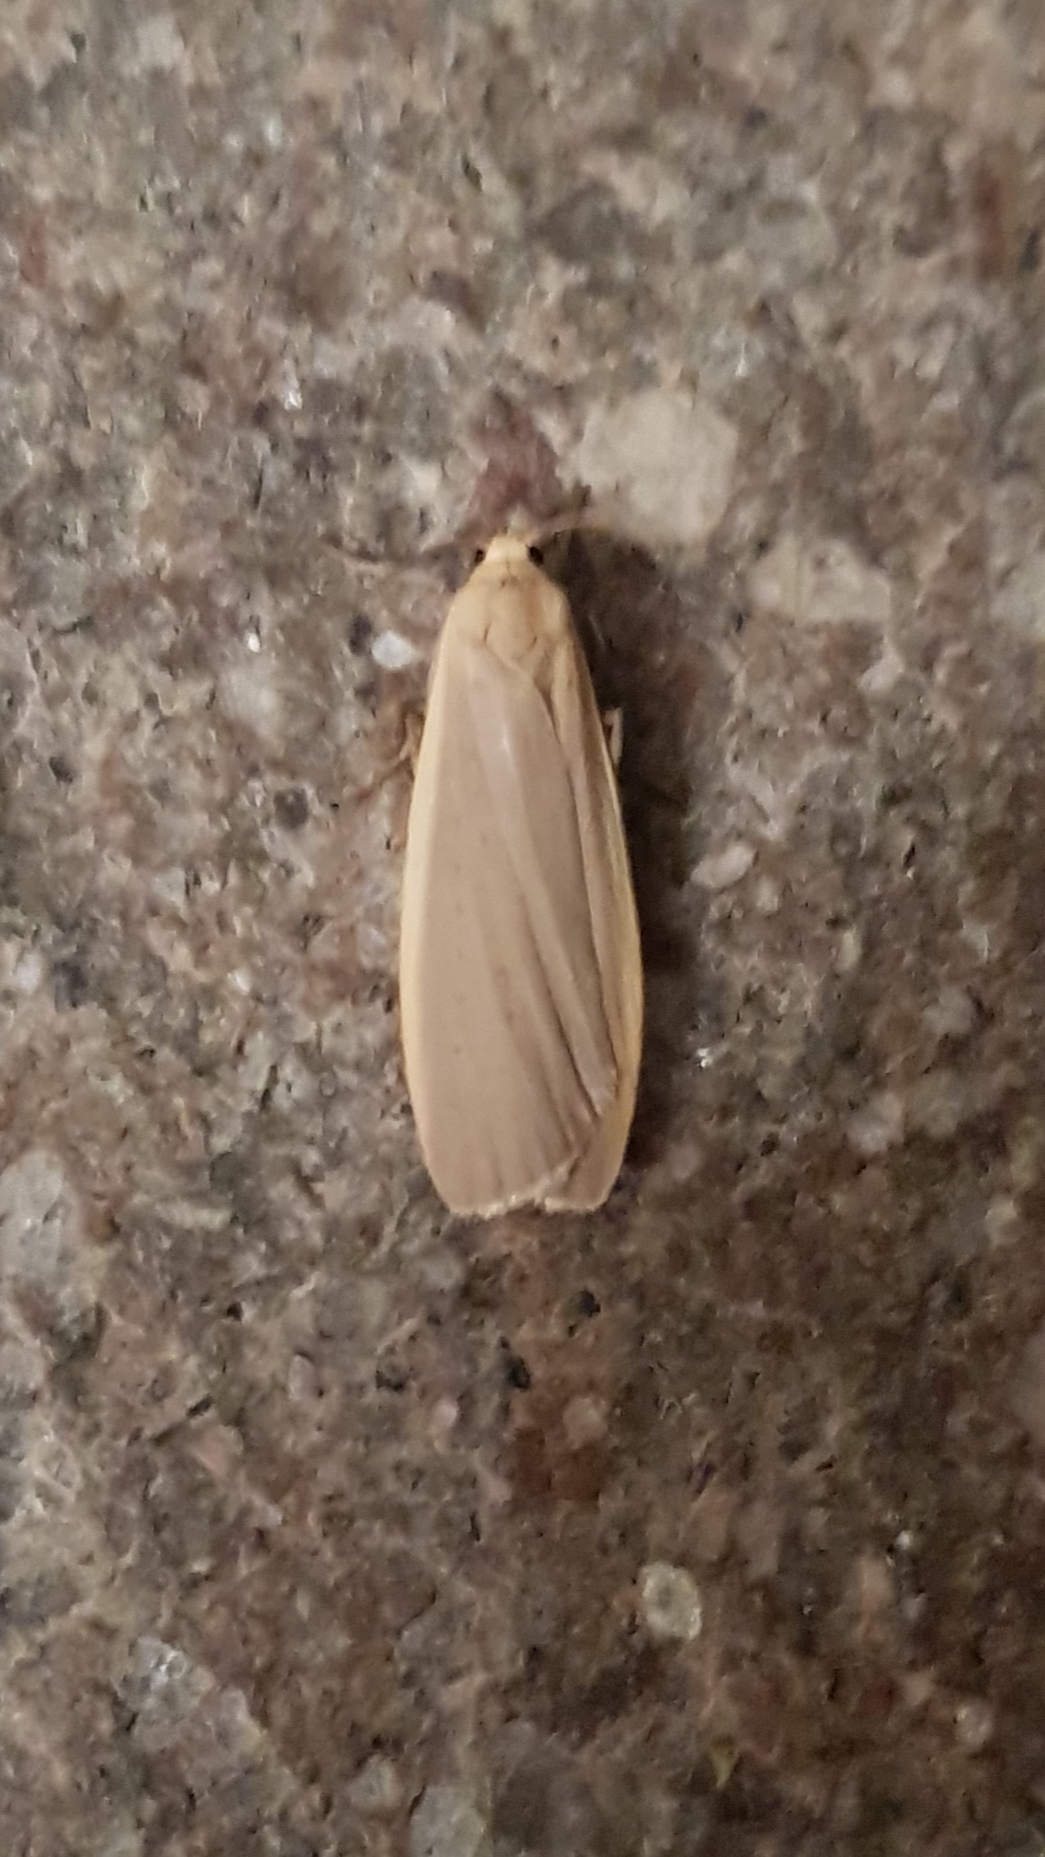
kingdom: Animalia
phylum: Arthropoda
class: Insecta
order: Lepidoptera
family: Erebidae
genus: Collita
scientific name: Collita griseola
